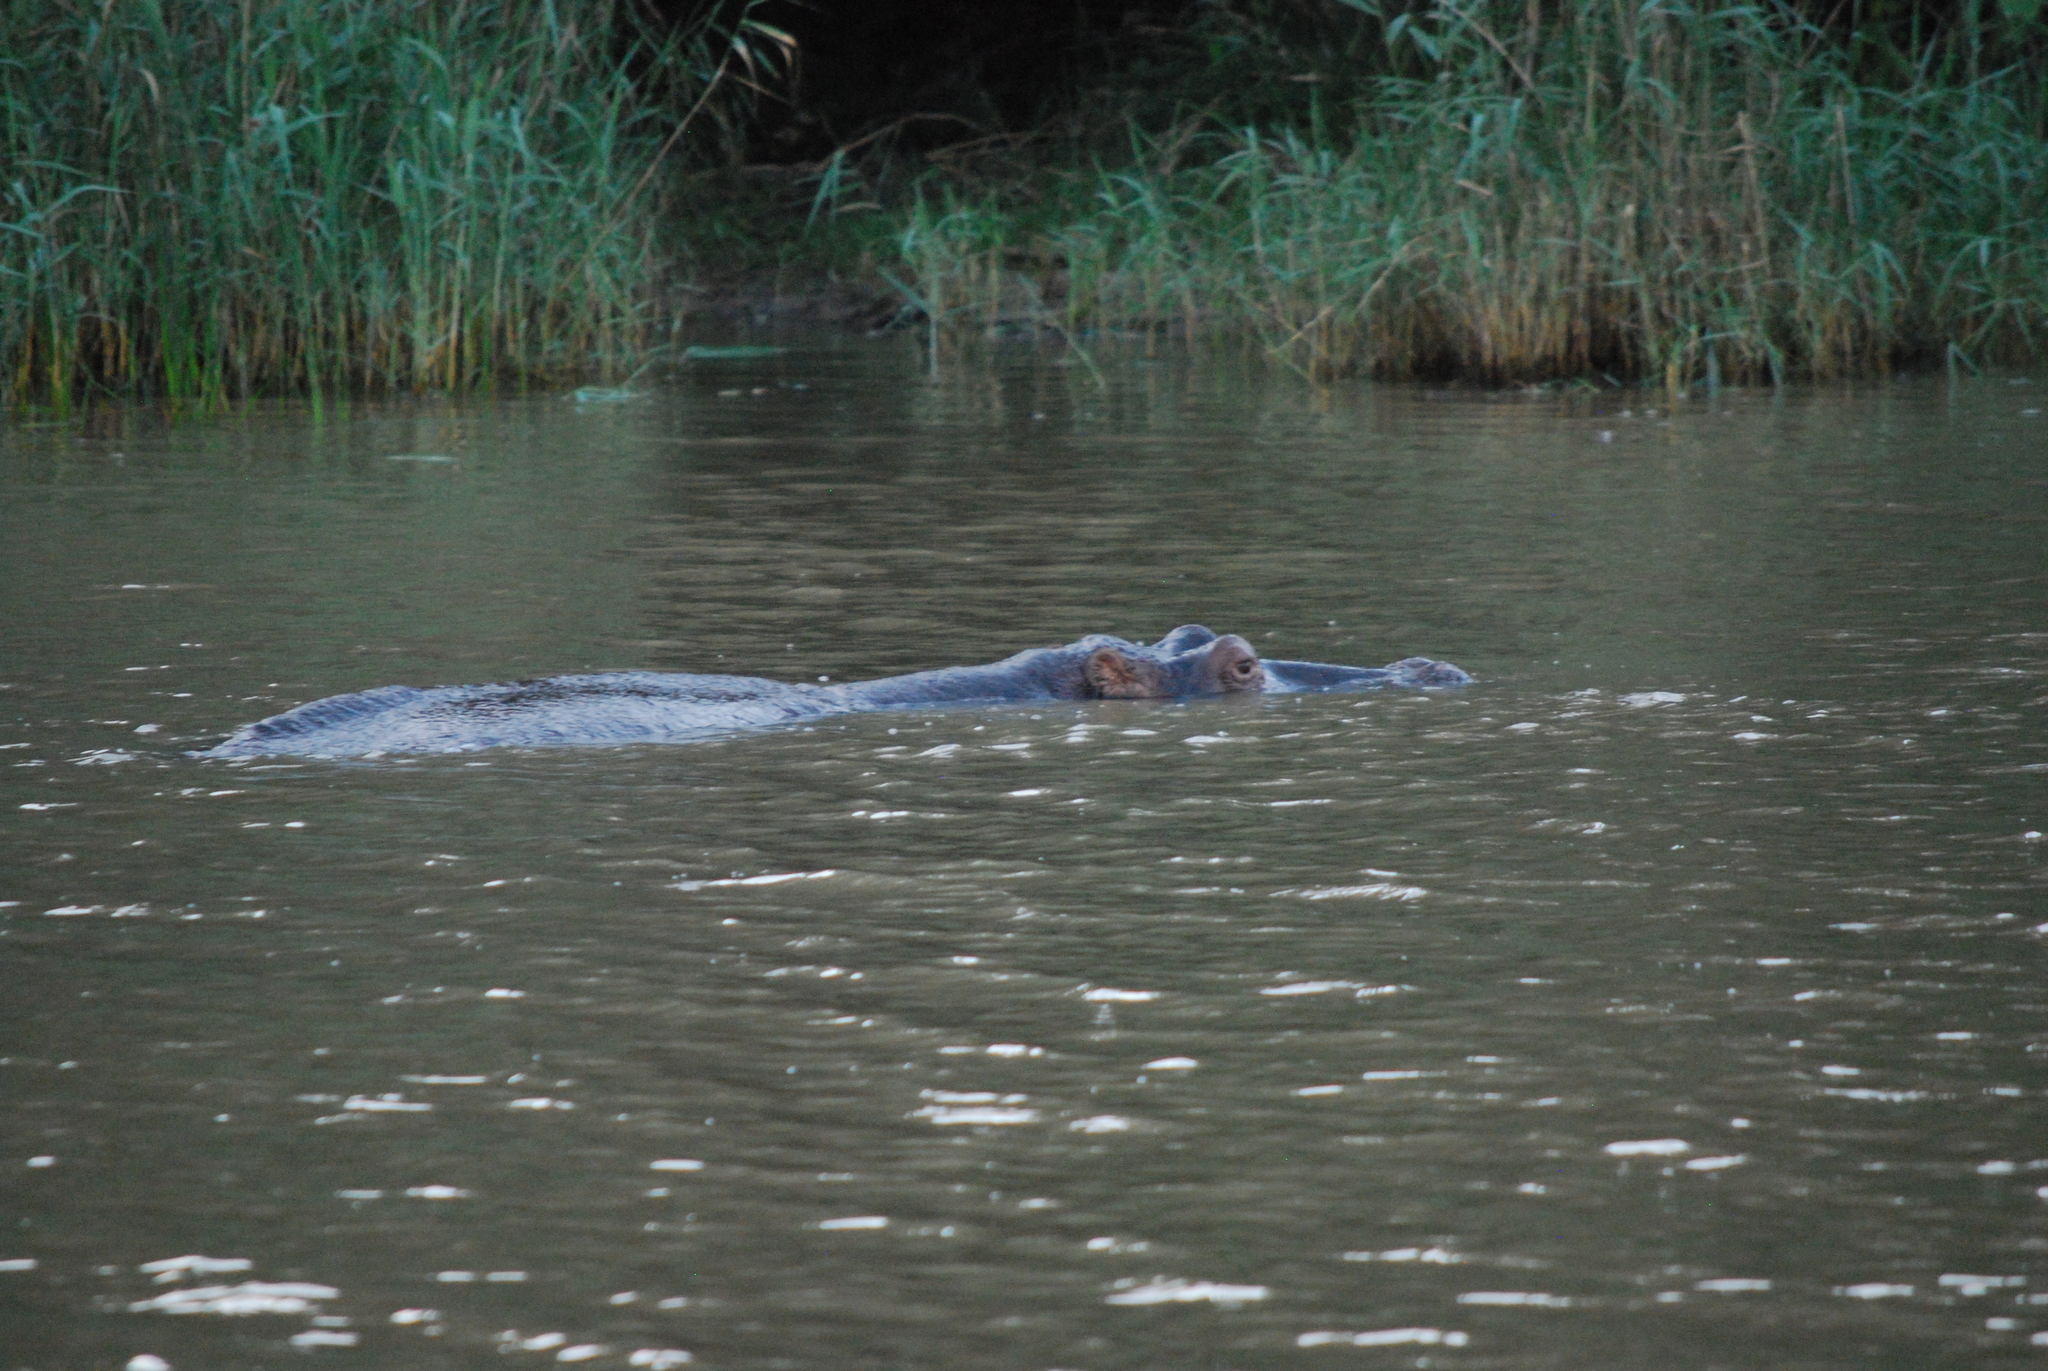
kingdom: Animalia
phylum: Chordata
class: Mammalia
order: Artiodactyla
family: Hippopotamidae
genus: Hippopotamus
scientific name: Hippopotamus amphibius
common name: Common hippopotamus
